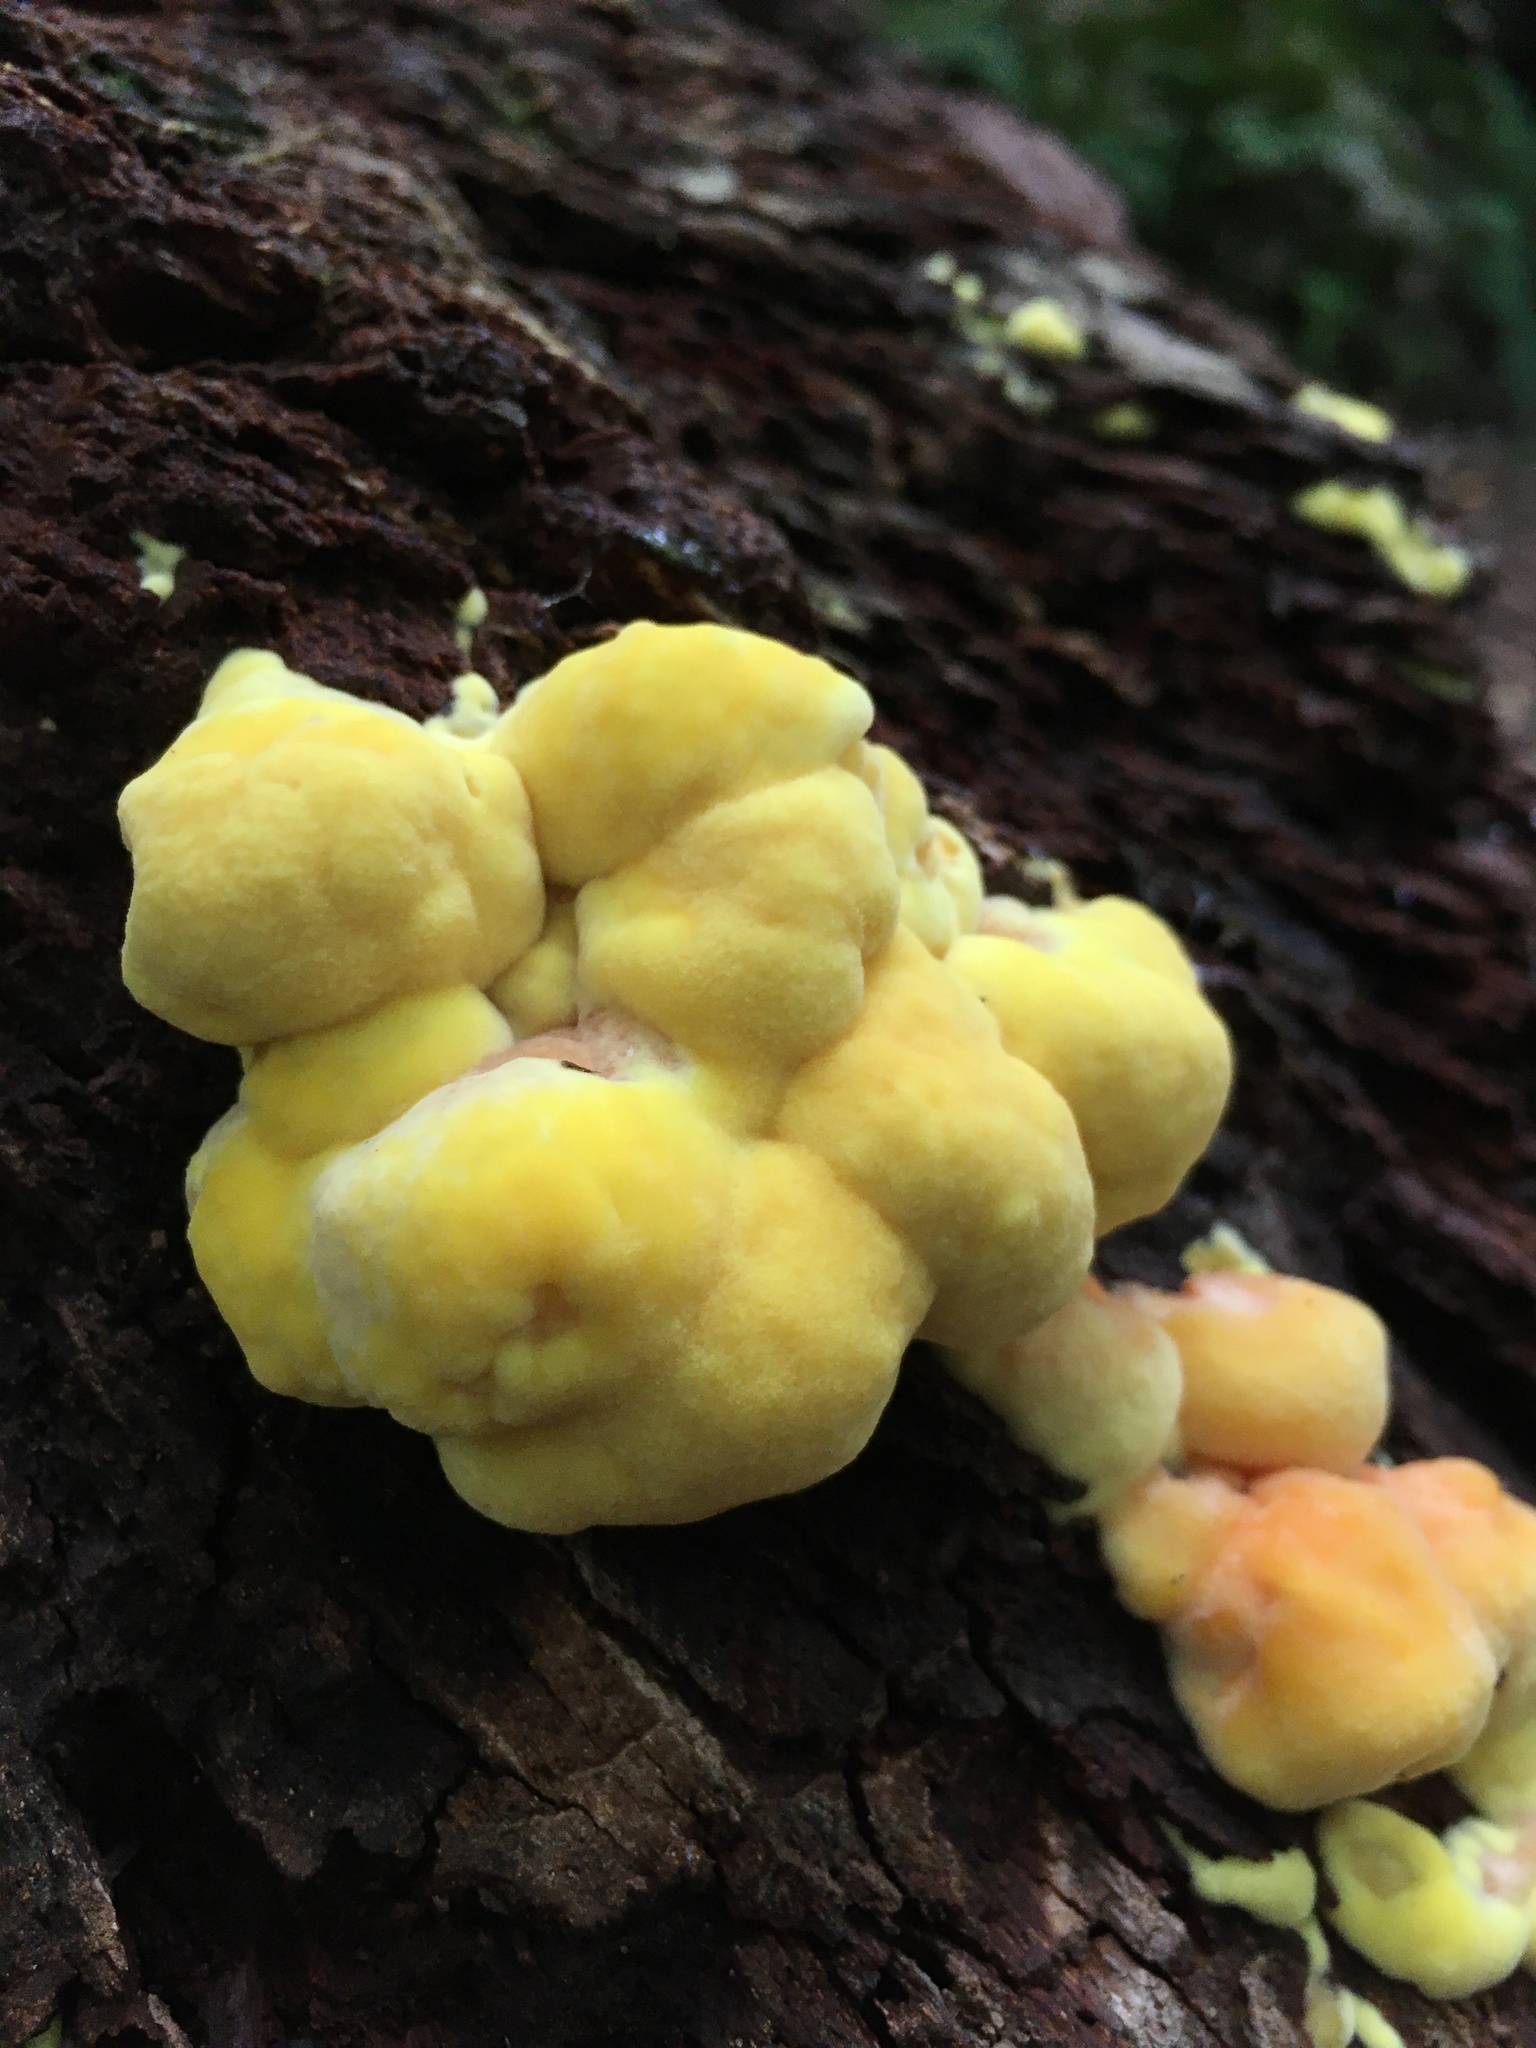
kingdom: Fungi
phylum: Basidiomycota
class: Agaricomycetes
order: Polyporales
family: Laetiporaceae
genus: Laetiporus
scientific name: Laetiporus sulphureus
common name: Chicken of the woods
